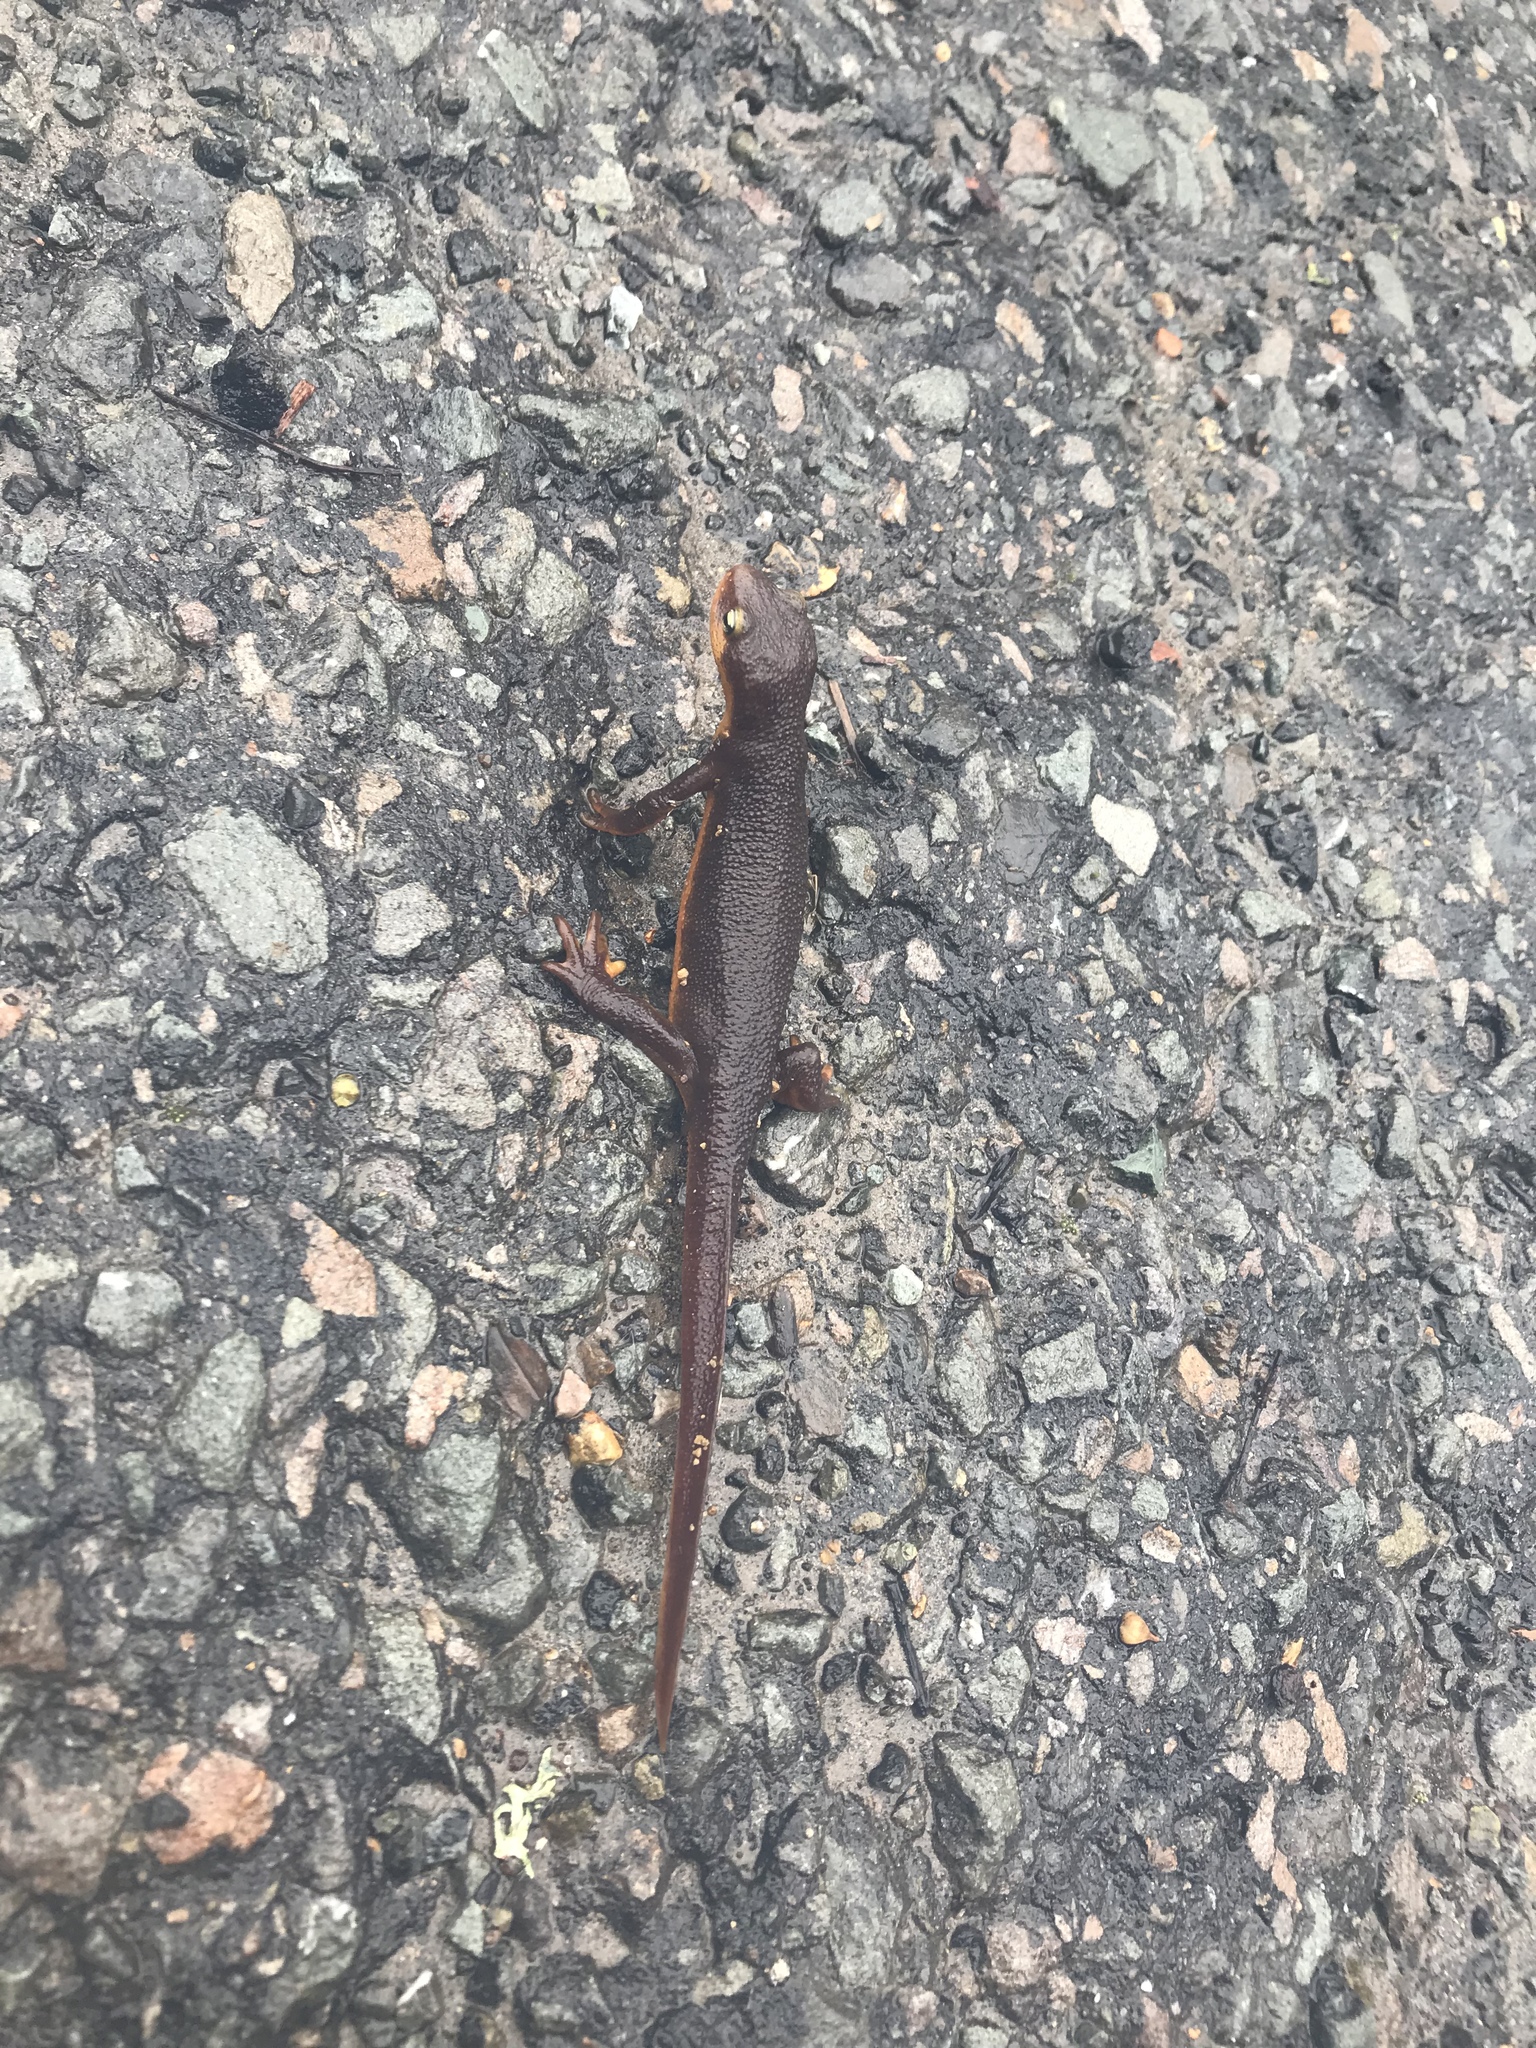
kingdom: Animalia
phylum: Chordata
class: Amphibia
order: Caudata
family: Salamandridae
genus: Taricha
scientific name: Taricha torosa
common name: California newt
